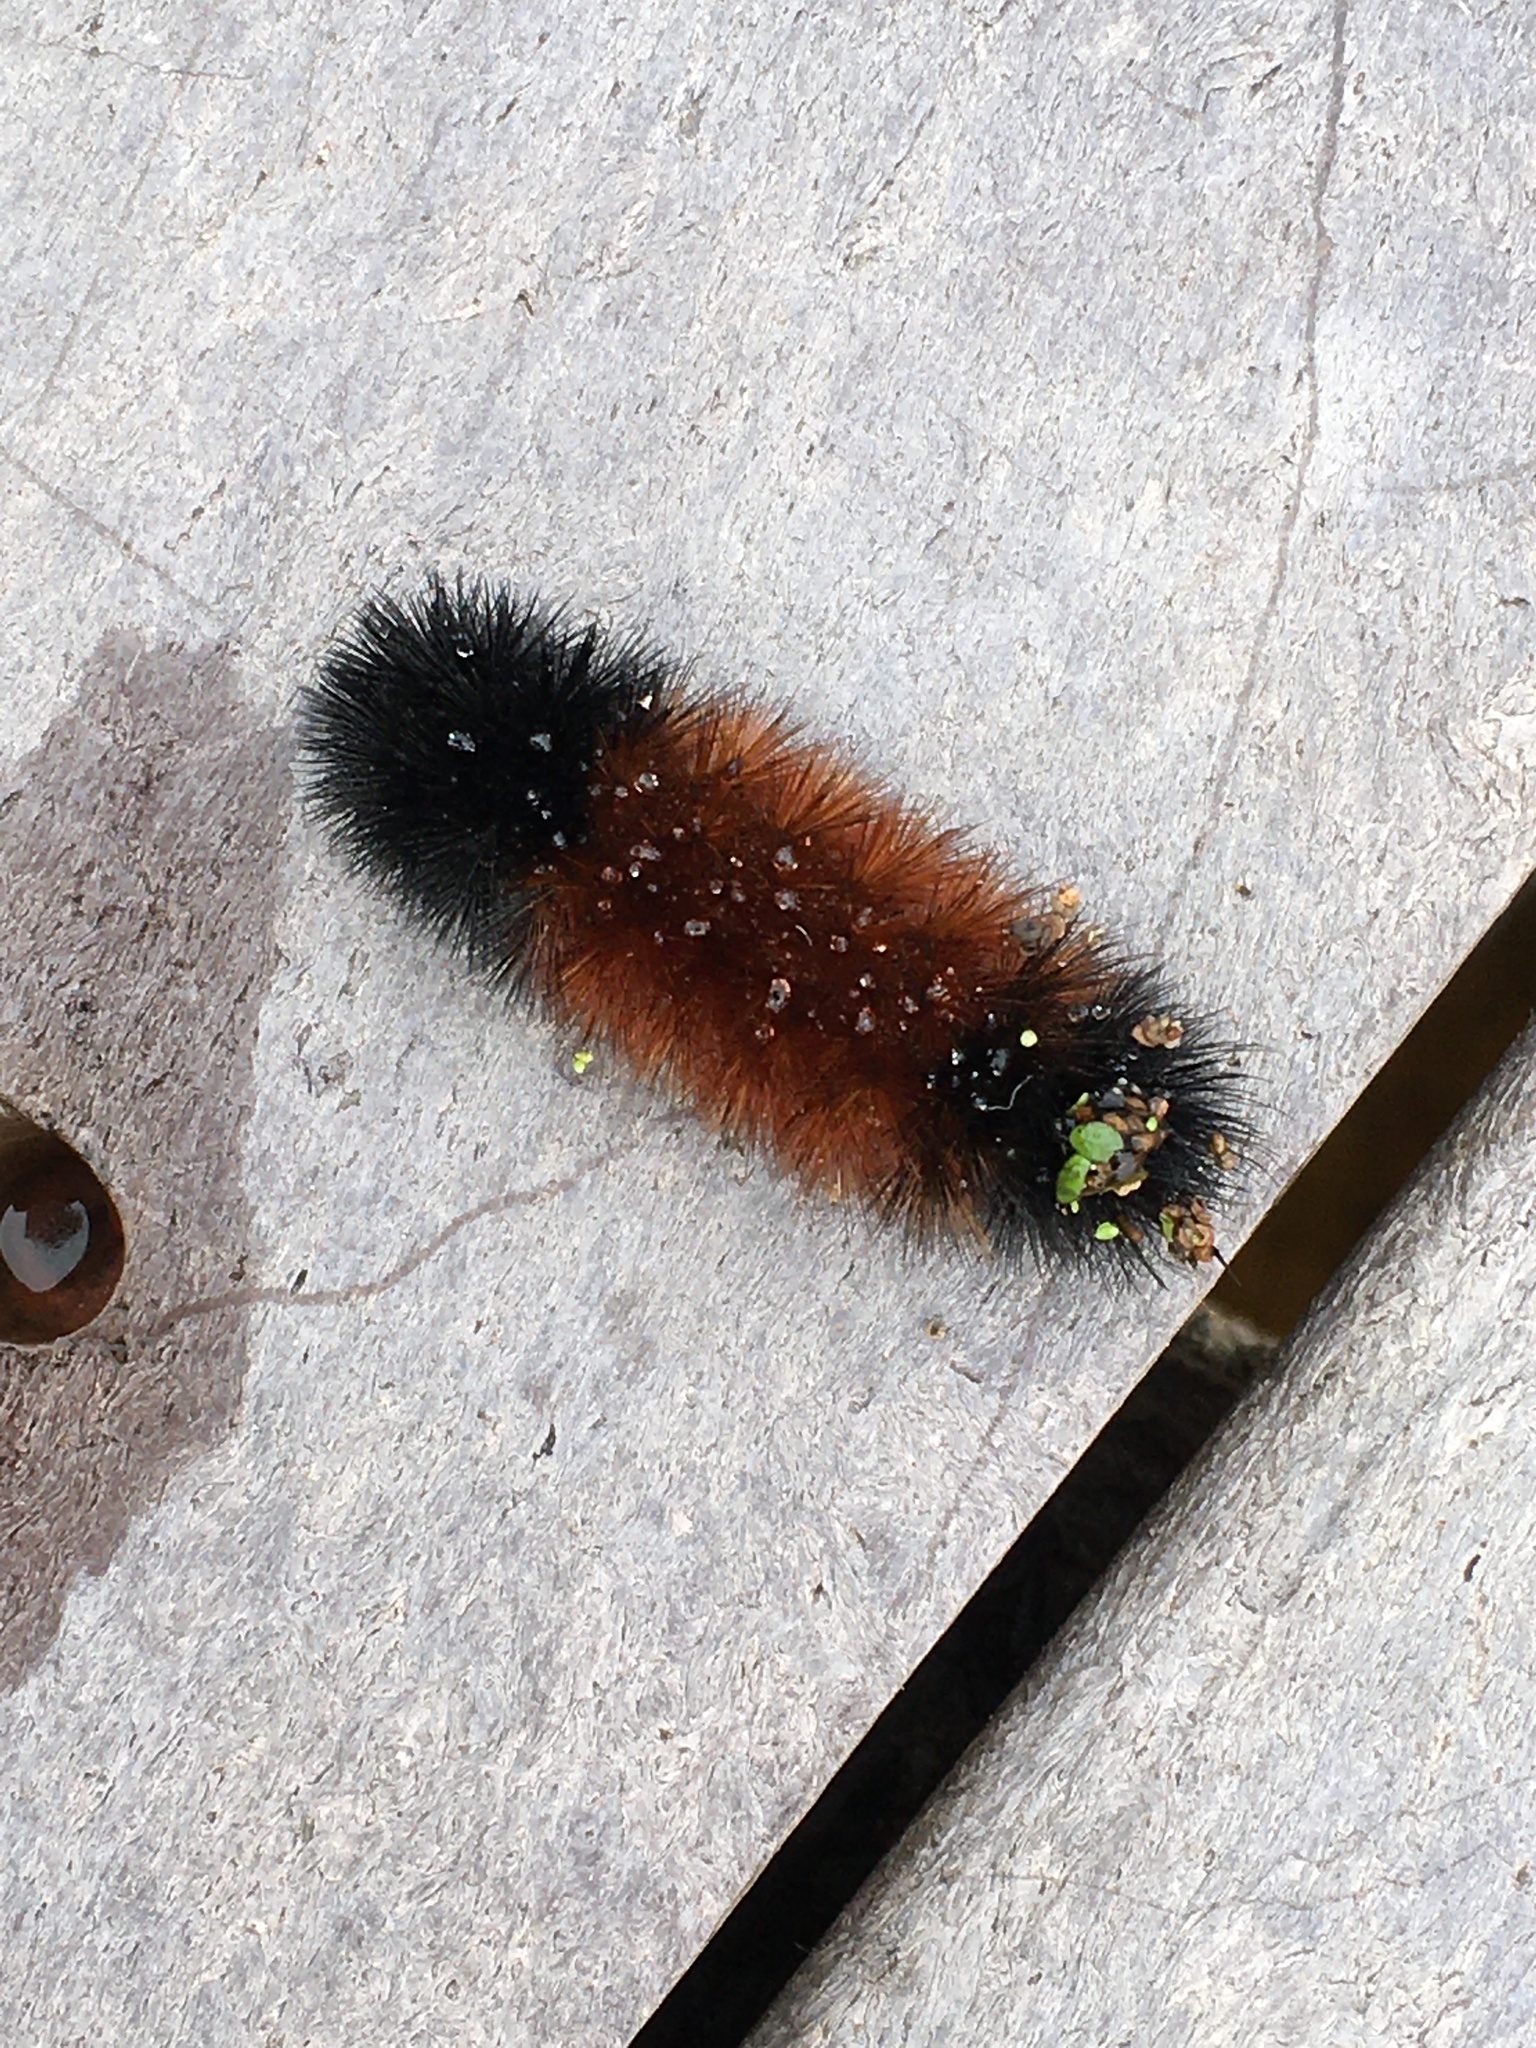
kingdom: Animalia
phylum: Arthropoda
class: Insecta
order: Lepidoptera
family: Erebidae
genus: Pyrrharctia
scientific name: Pyrrharctia isabella
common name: Isabella tiger moth
